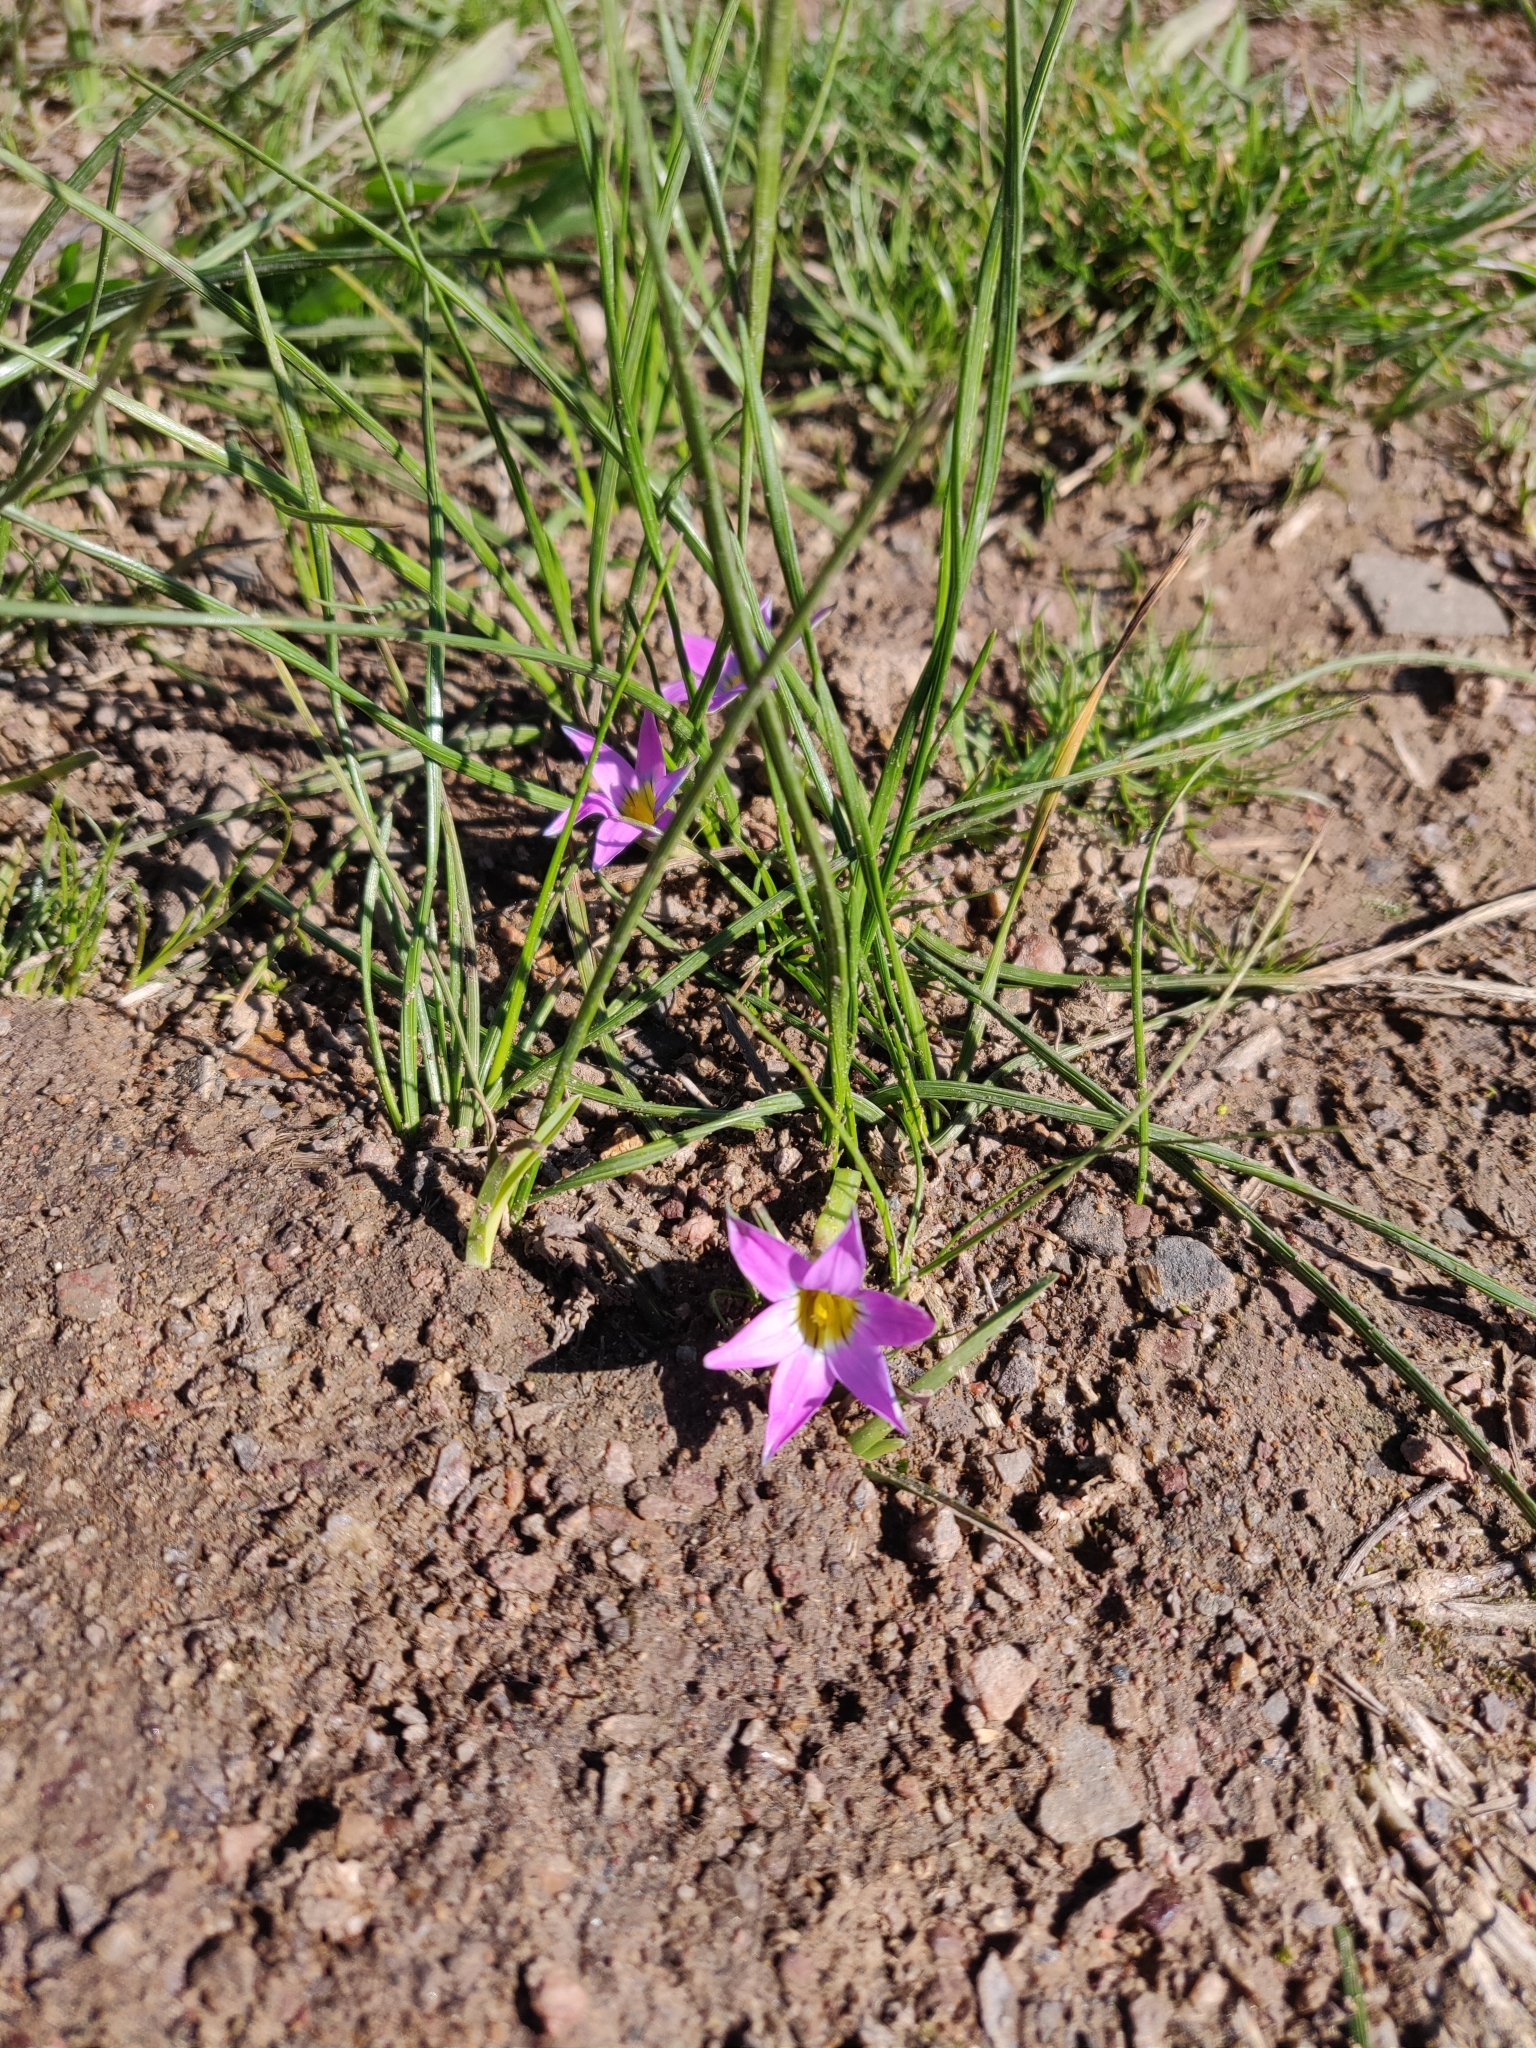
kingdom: Plantae
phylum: Tracheophyta
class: Liliopsida
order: Asparagales
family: Iridaceae
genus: Romulea
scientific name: Romulea rosea
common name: Oniongrass
